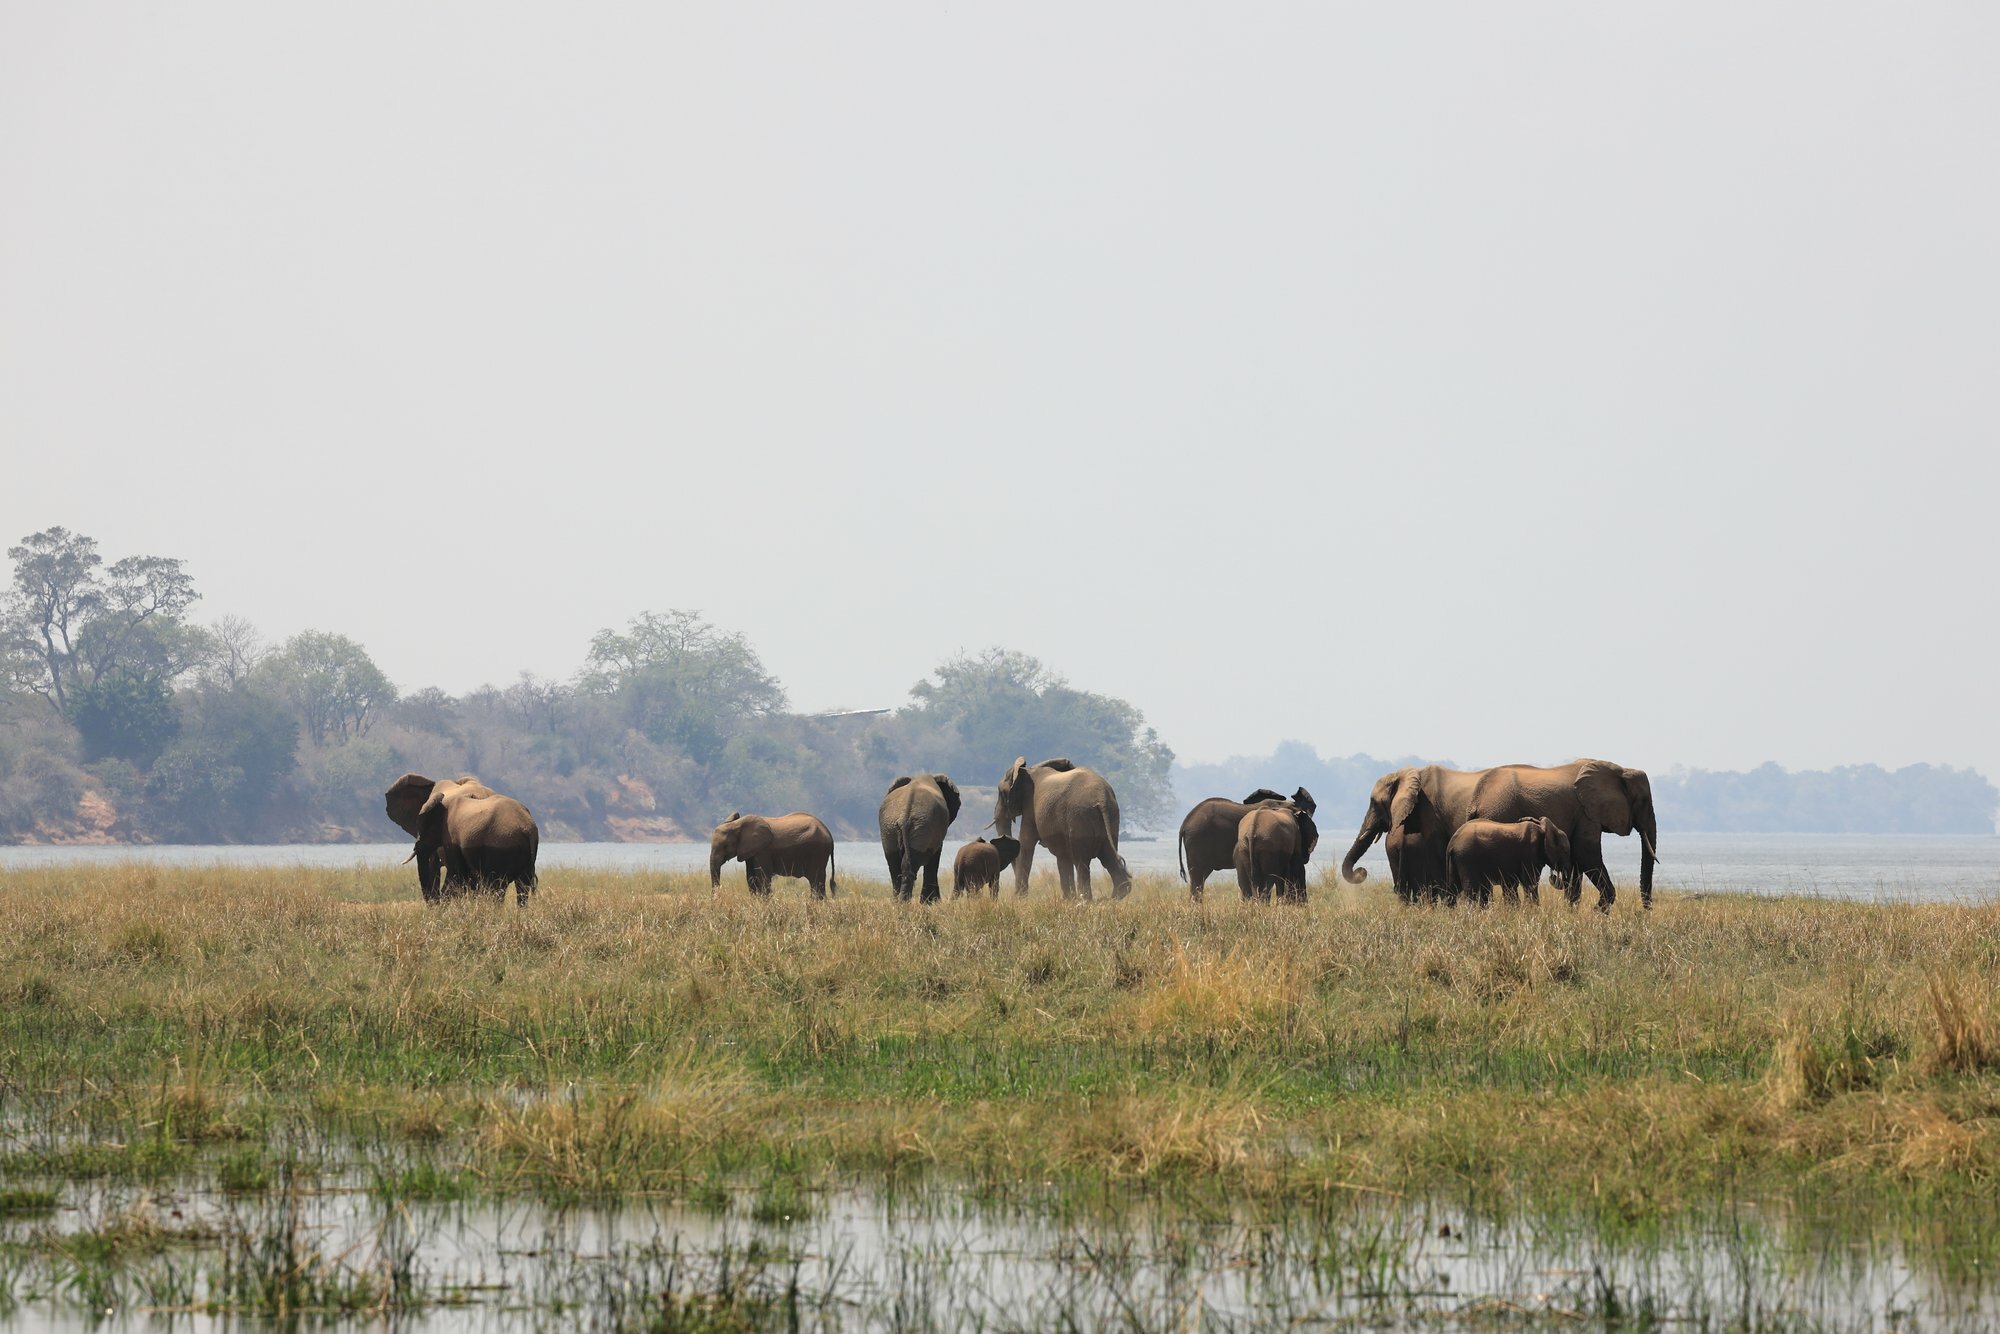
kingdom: Animalia
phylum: Chordata
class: Mammalia
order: Proboscidea
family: Elephantidae
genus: Loxodonta
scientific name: Loxodonta africana
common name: African elephant
